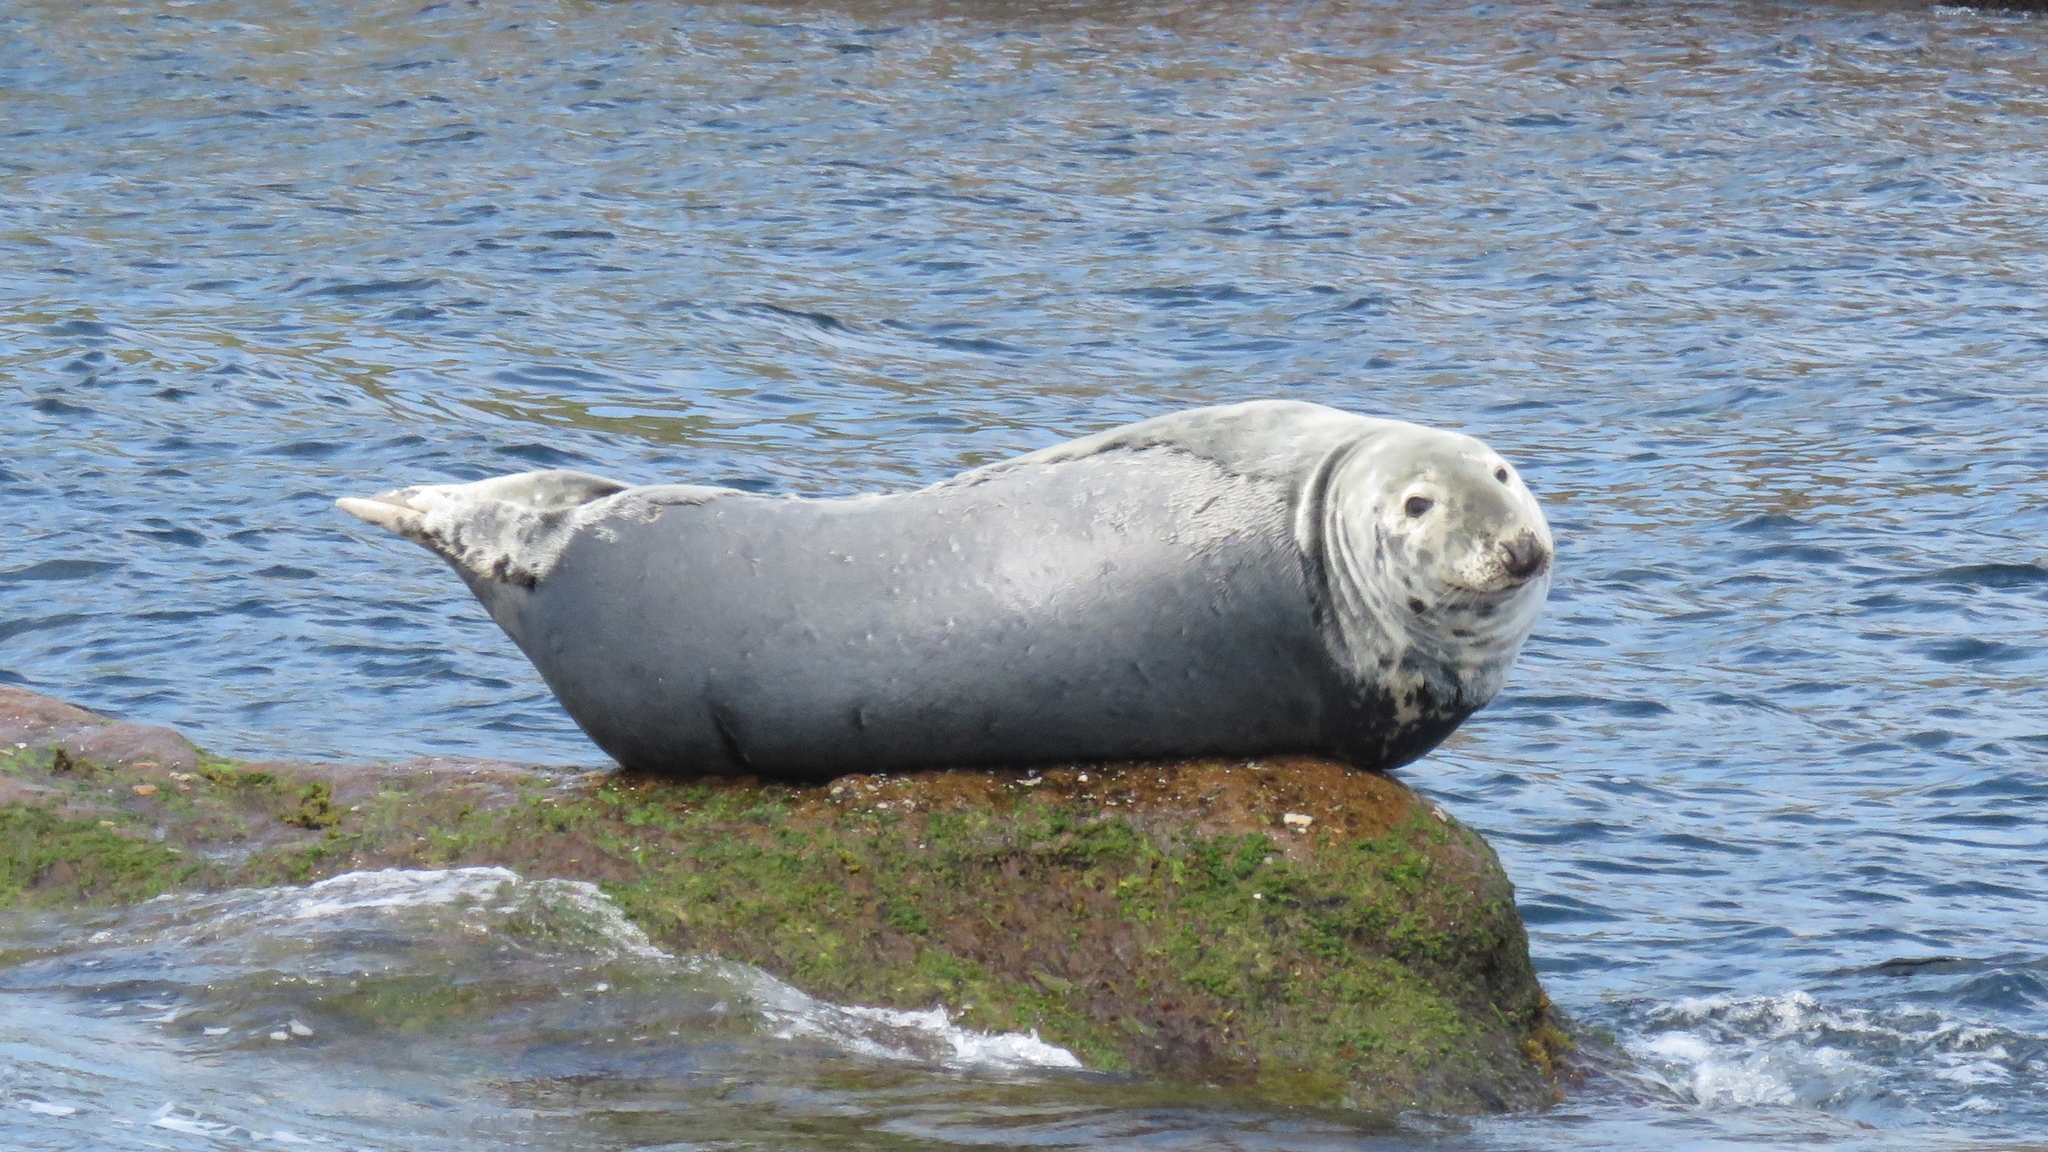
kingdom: Animalia
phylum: Chordata
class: Mammalia
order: Carnivora
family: Phocidae
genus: Halichoerus
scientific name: Halichoerus grypus
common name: Grey seal
